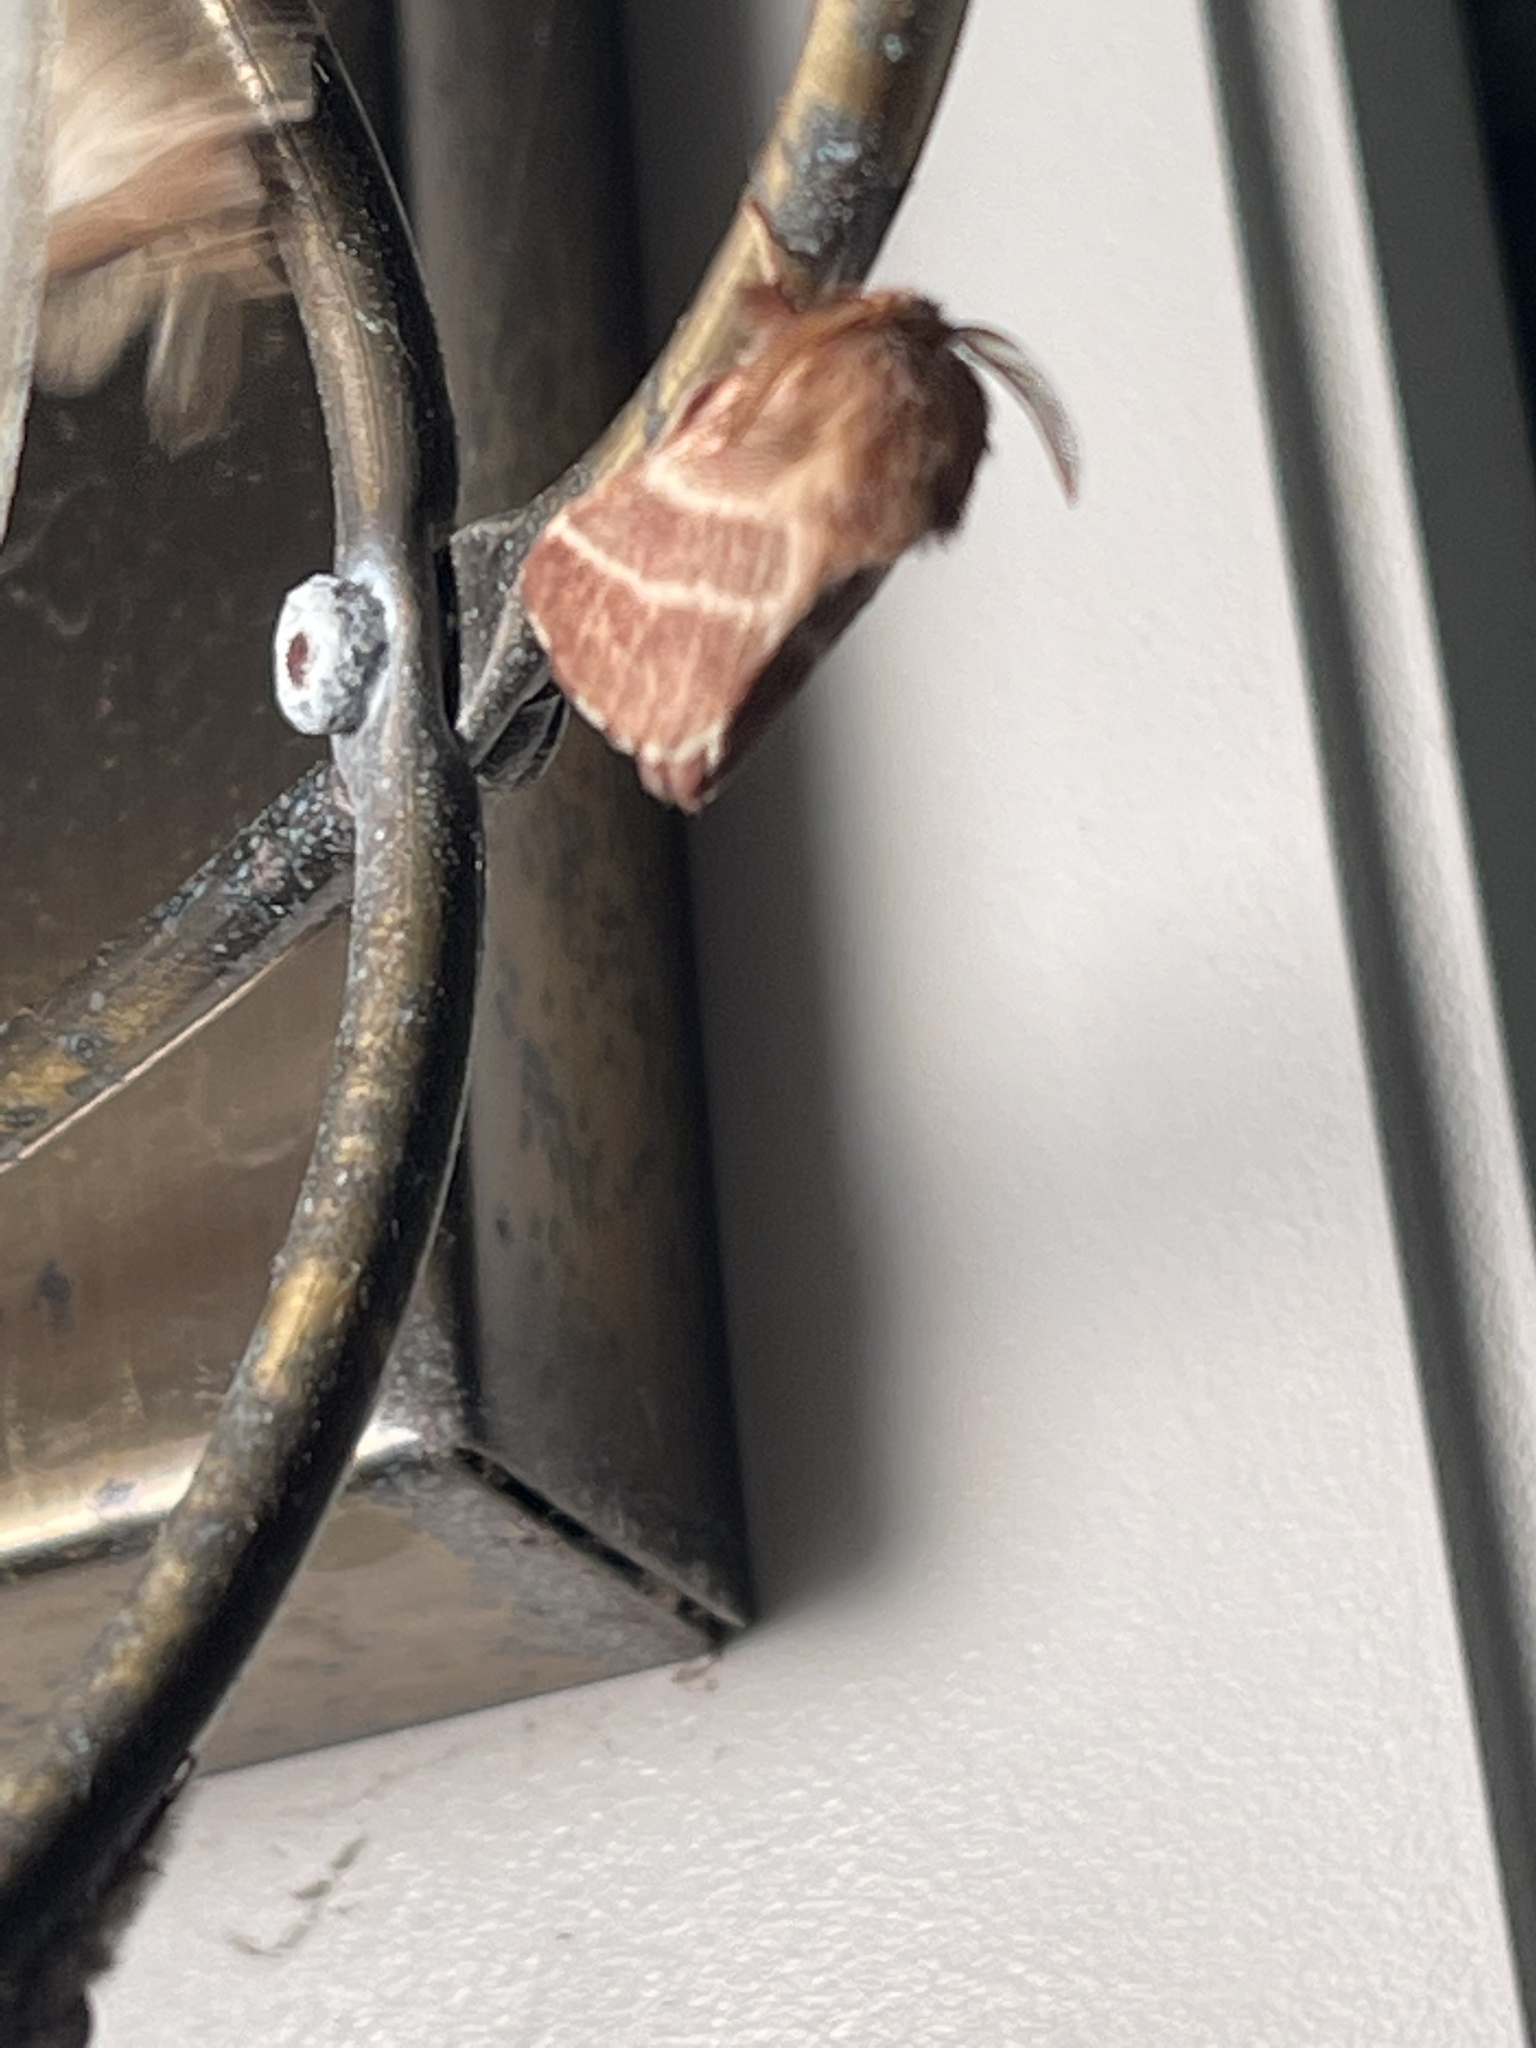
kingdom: Animalia
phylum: Arthropoda
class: Insecta
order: Lepidoptera
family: Lasiocampidae
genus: Malacosoma
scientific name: Malacosoma americana
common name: Eastern tent caterpillar moth
